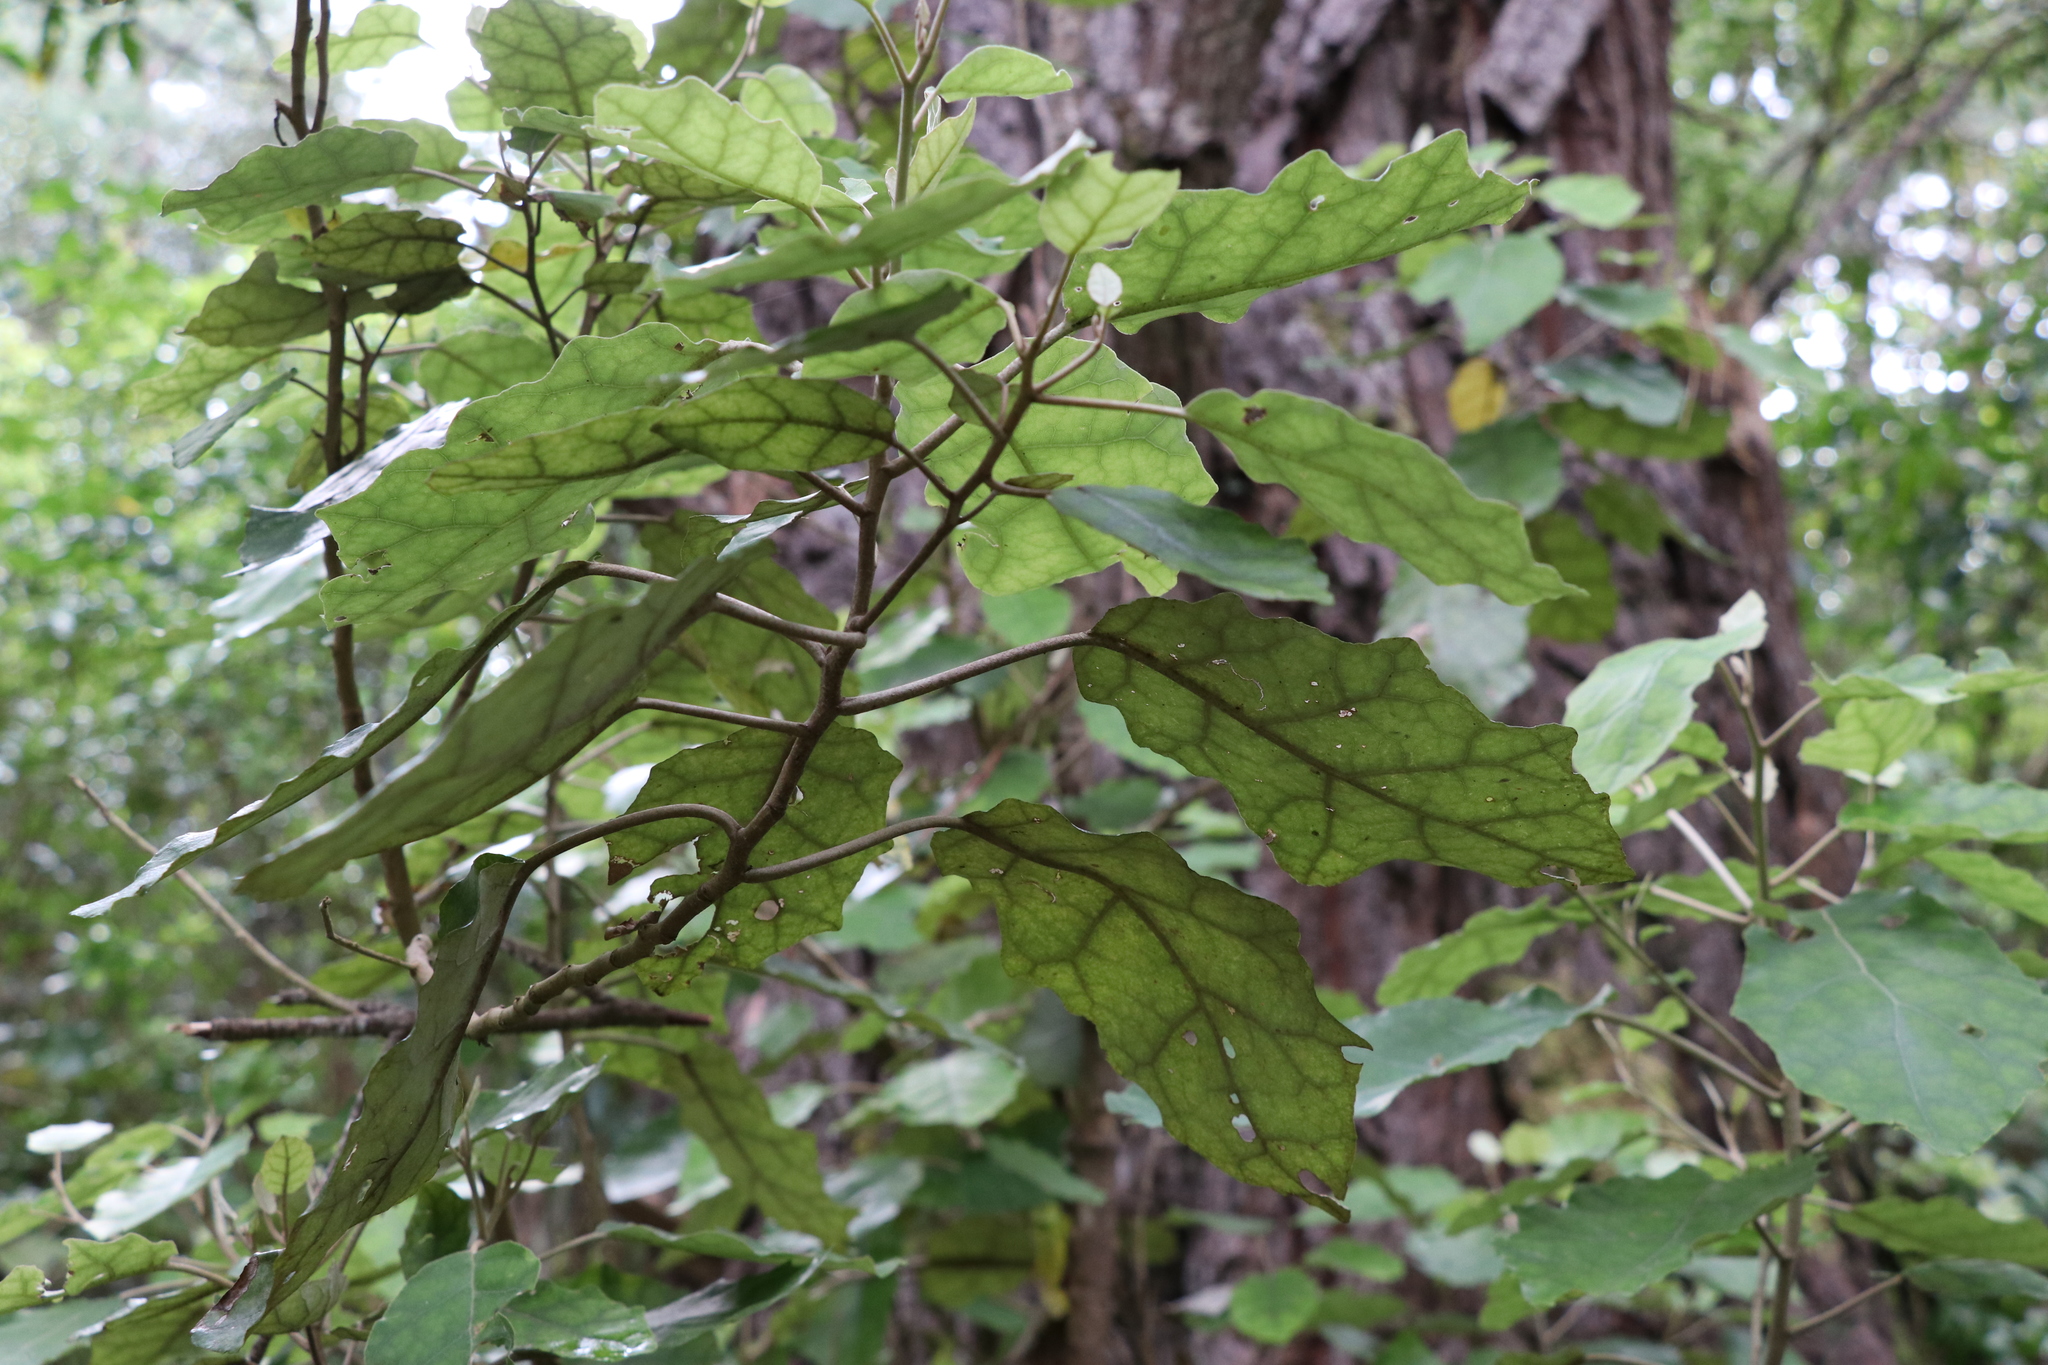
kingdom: Plantae
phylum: Tracheophyta
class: Magnoliopsida
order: Asterales
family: Asteraceae
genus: Brachyglottis
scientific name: Brachyglottis repanda
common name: Hedge ragwort
